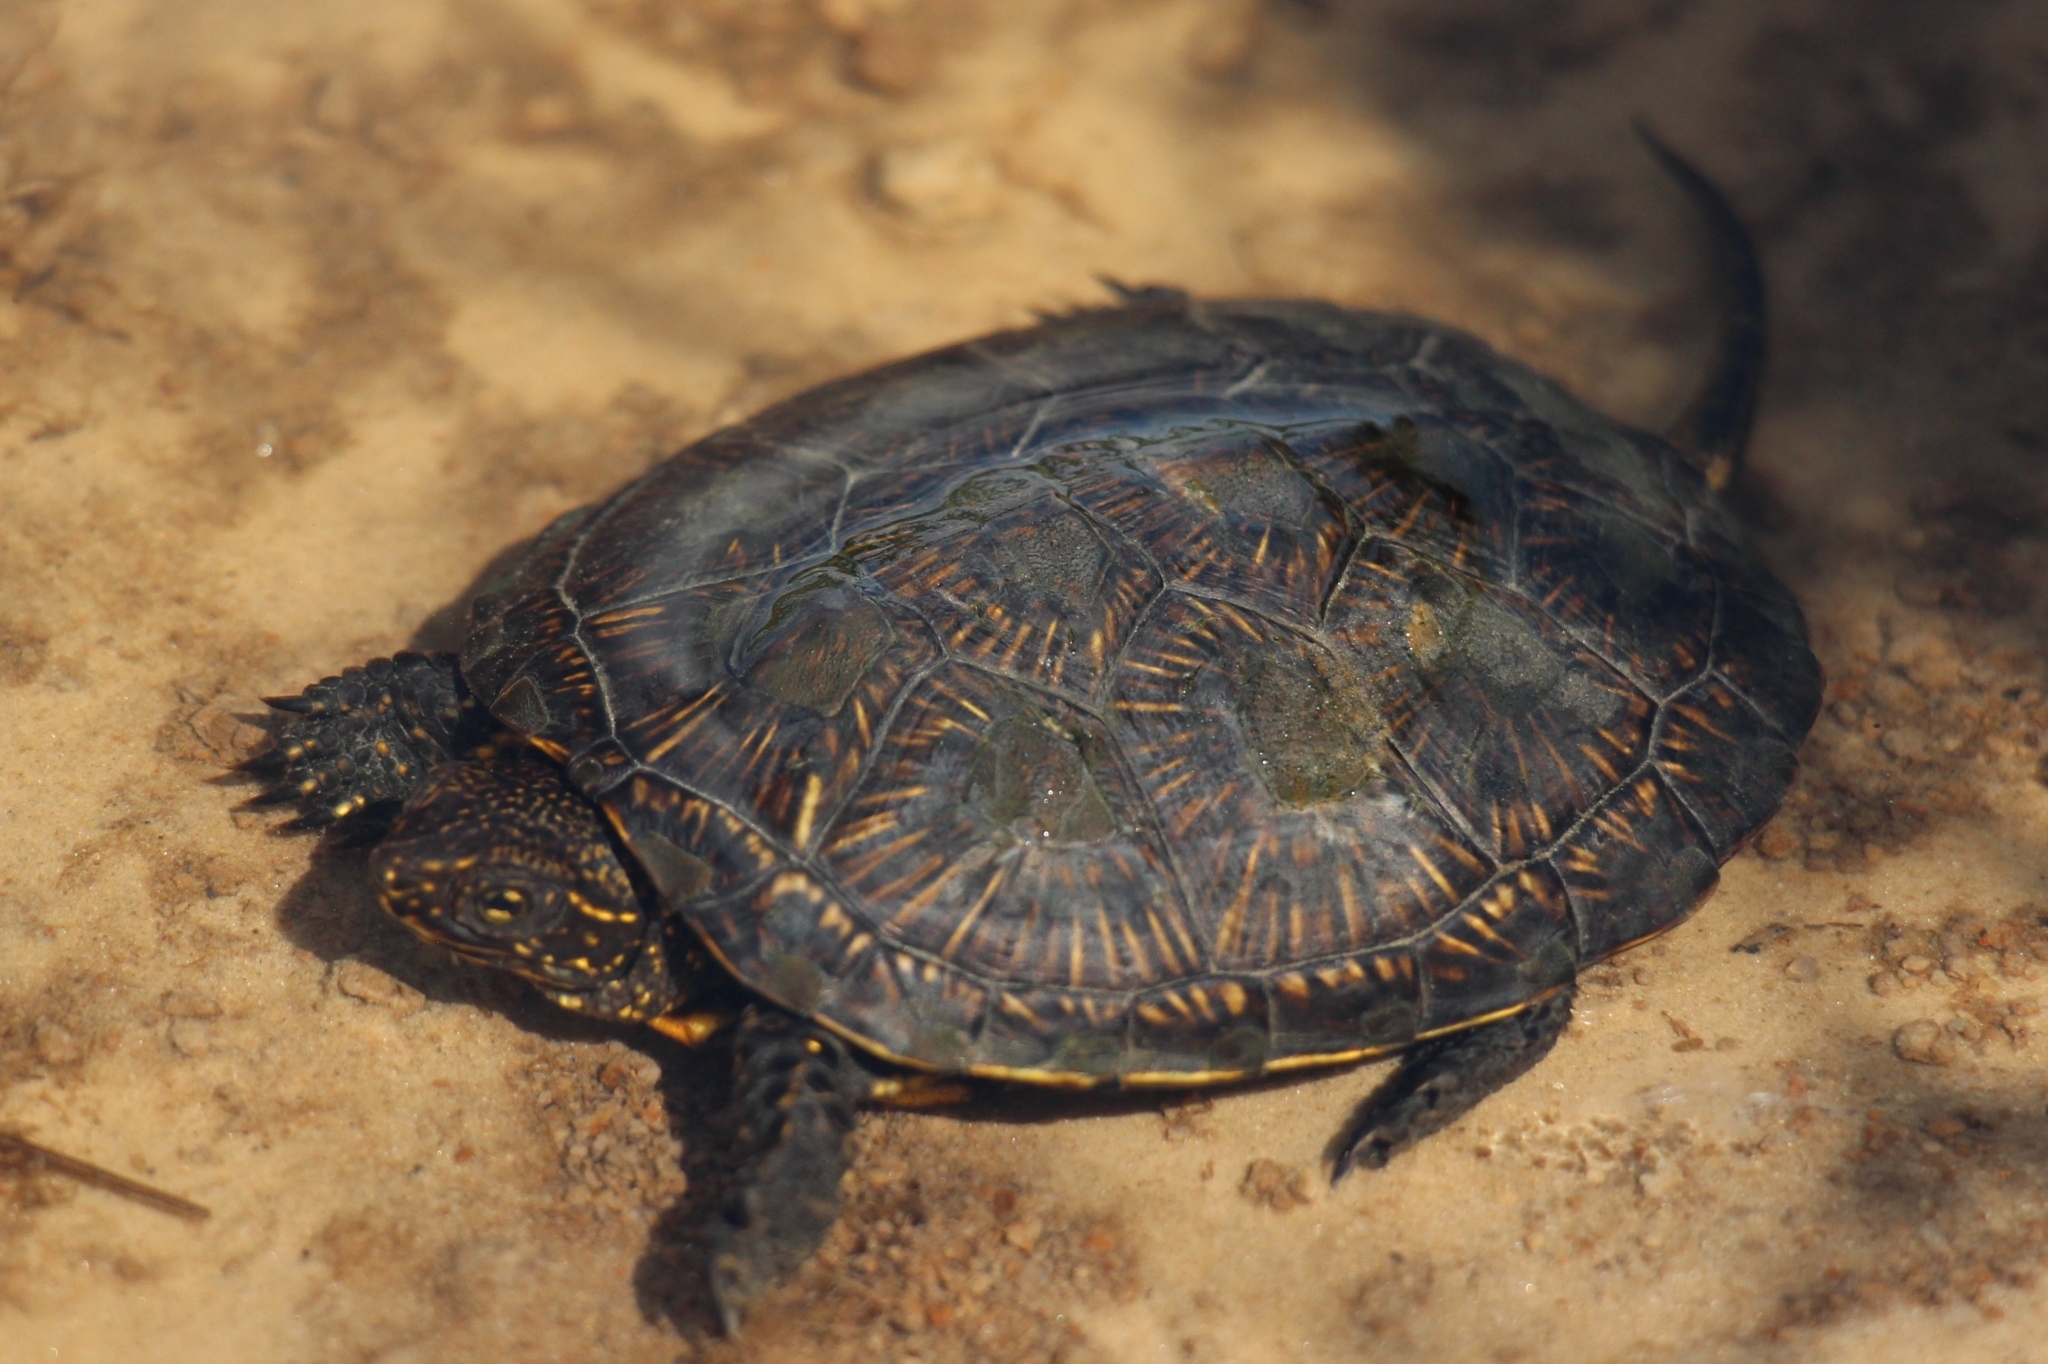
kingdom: Animalia
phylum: Chordata
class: Testudines
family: Emydidae
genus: Emys
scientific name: Emys orbicularis
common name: European pond turtle
